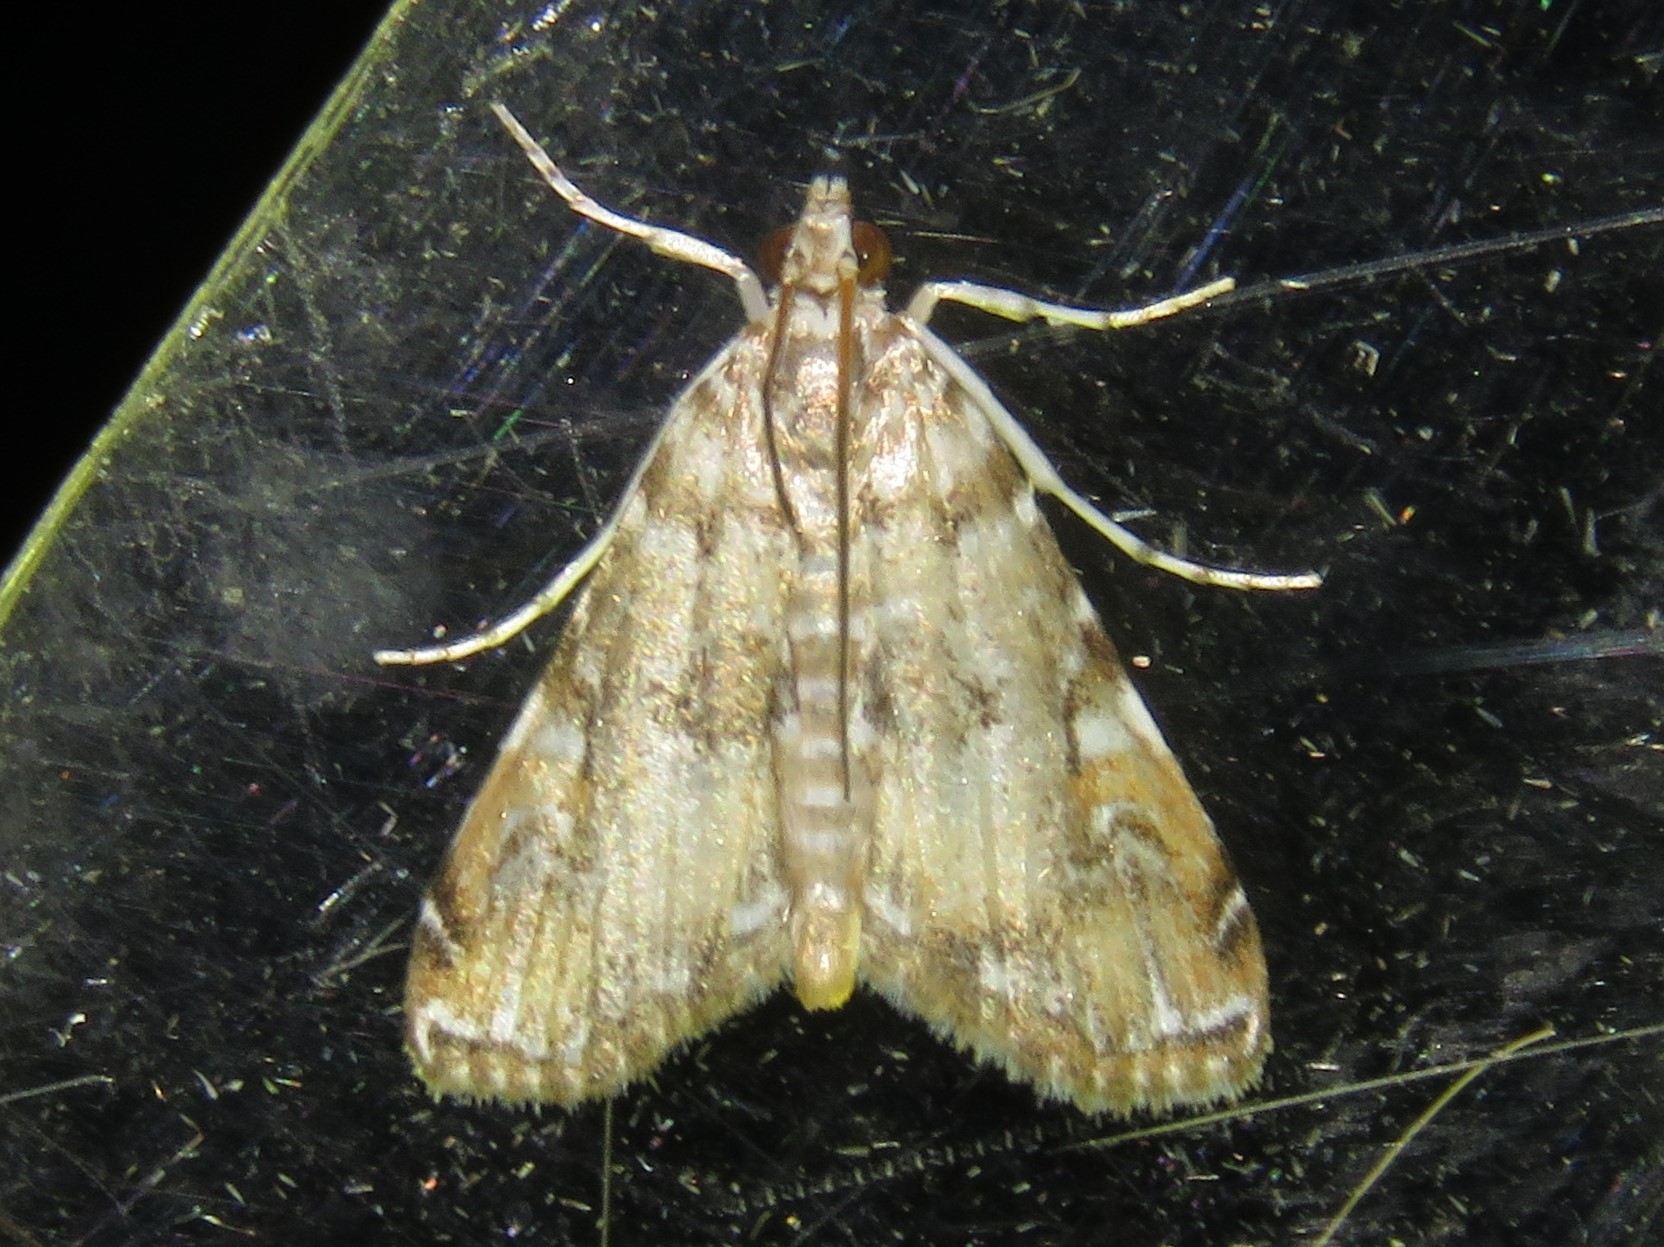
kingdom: Animalia
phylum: Arthropoda
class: Insecta
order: Lepidoptera
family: Crambidae
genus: Elophila
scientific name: Elophila gyralis
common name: Waterlily borer moth
